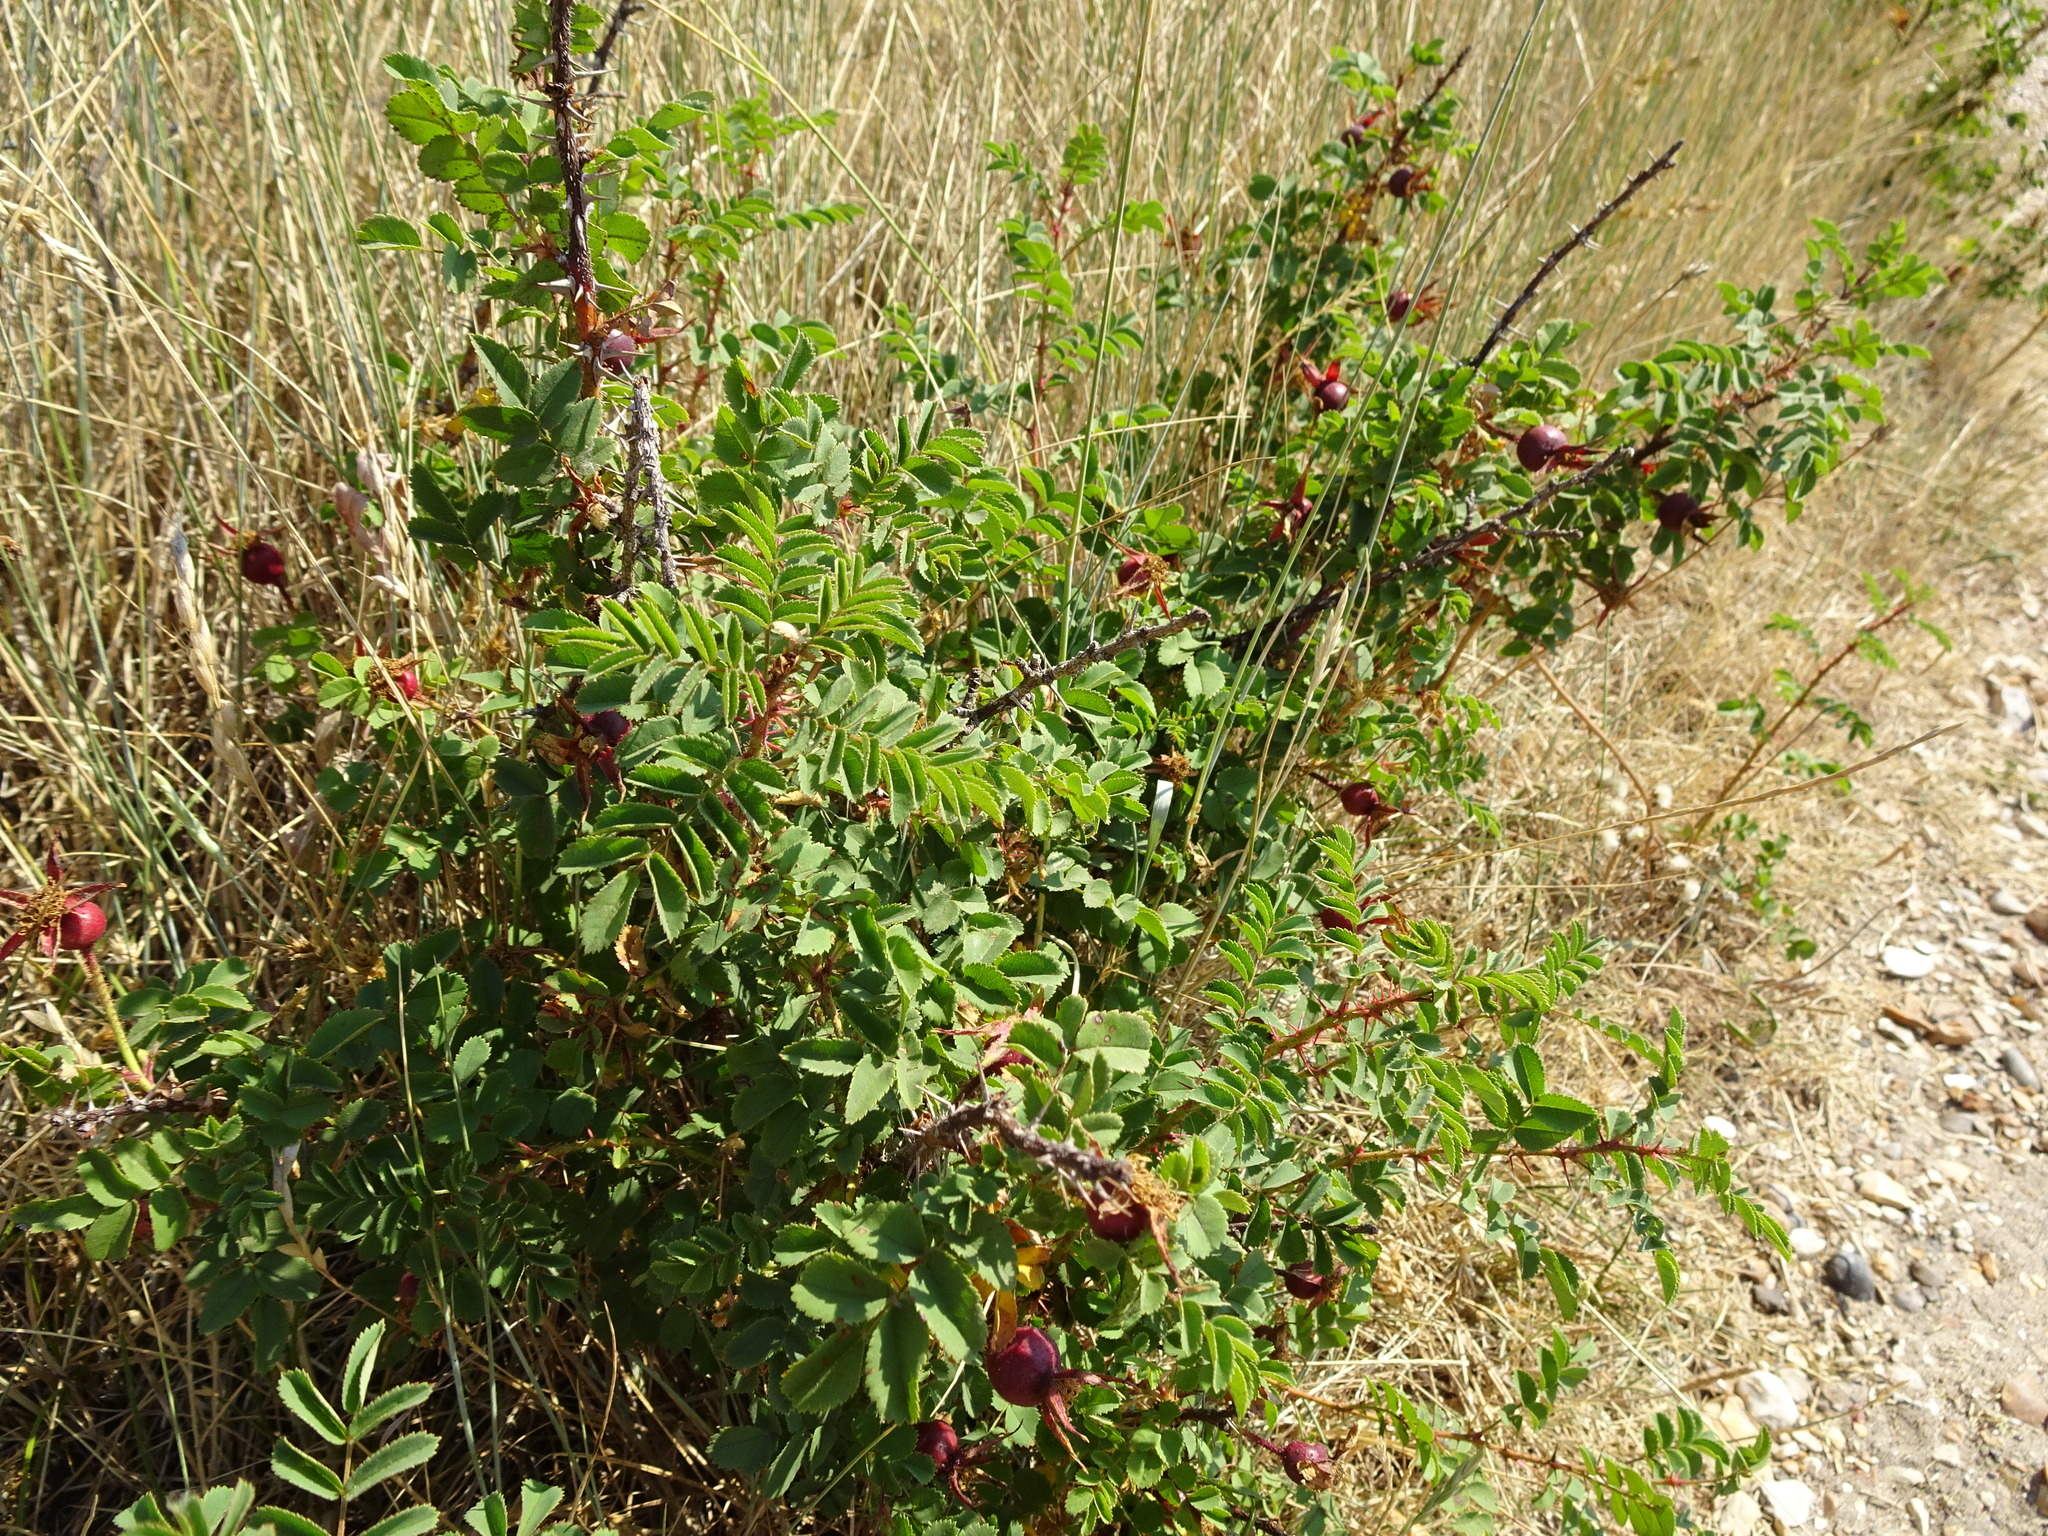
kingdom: Plantae
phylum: Tracheophyta
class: Magnoliopsida
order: Rosales
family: Rosaceae
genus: Rosa
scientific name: Rosa spinosissima
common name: Burnet rose
